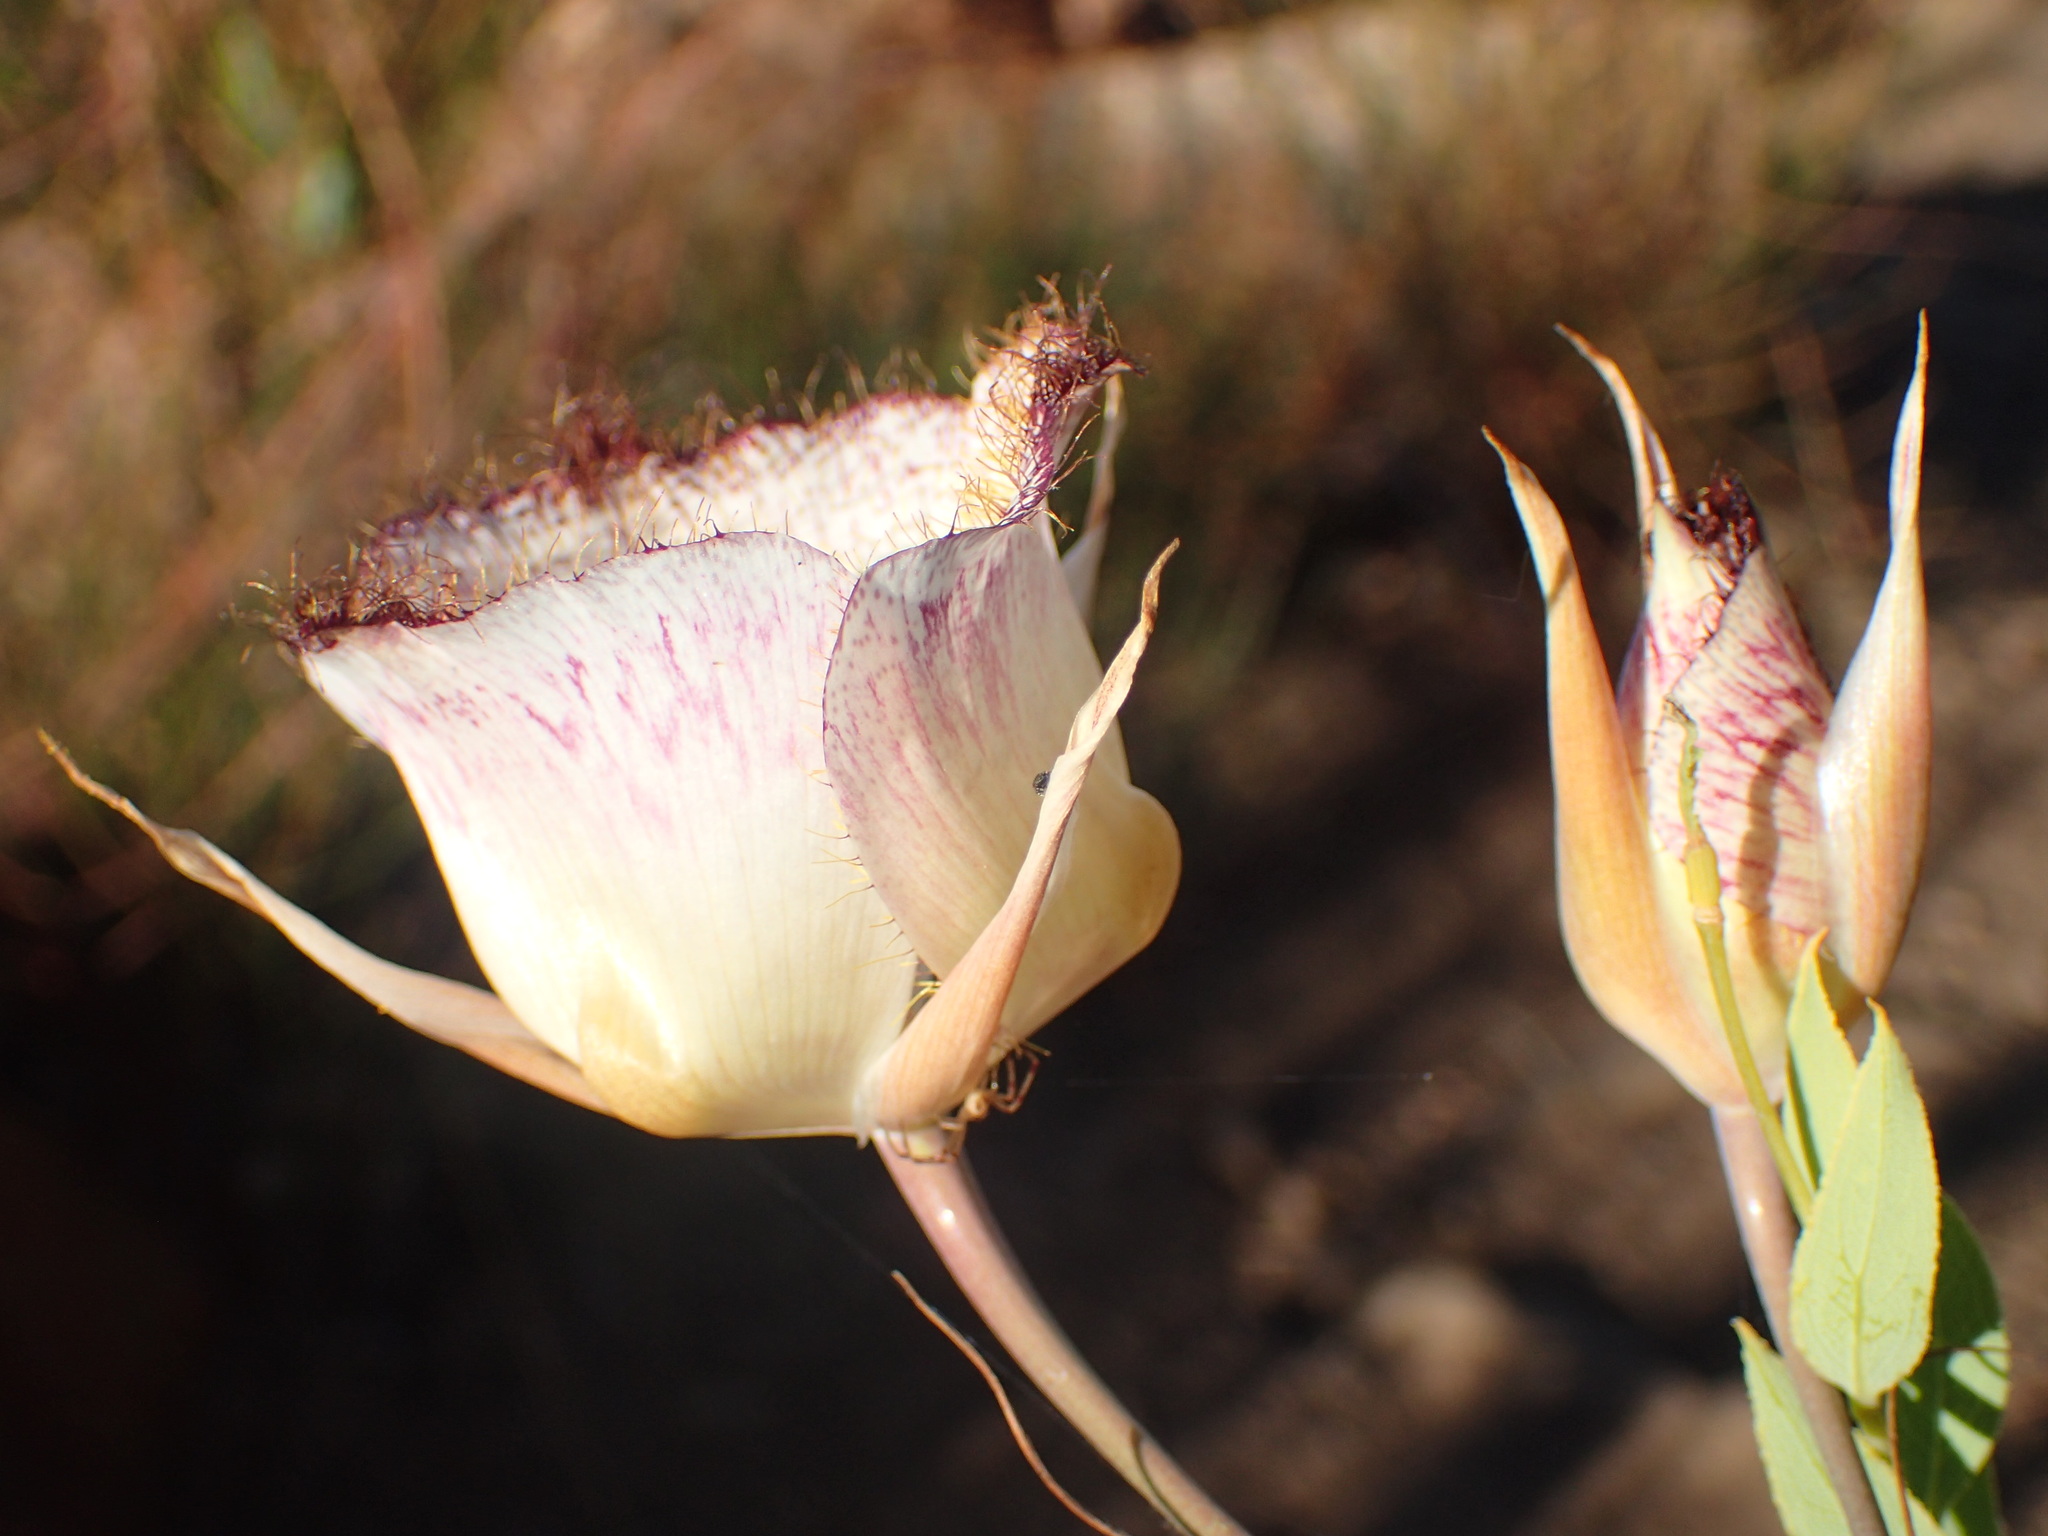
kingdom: Plantae
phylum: Tracheophyta
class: Liliopsida
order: Liliales
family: Liliaceae
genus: Calochortus
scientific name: Calochortus fimbriatus
